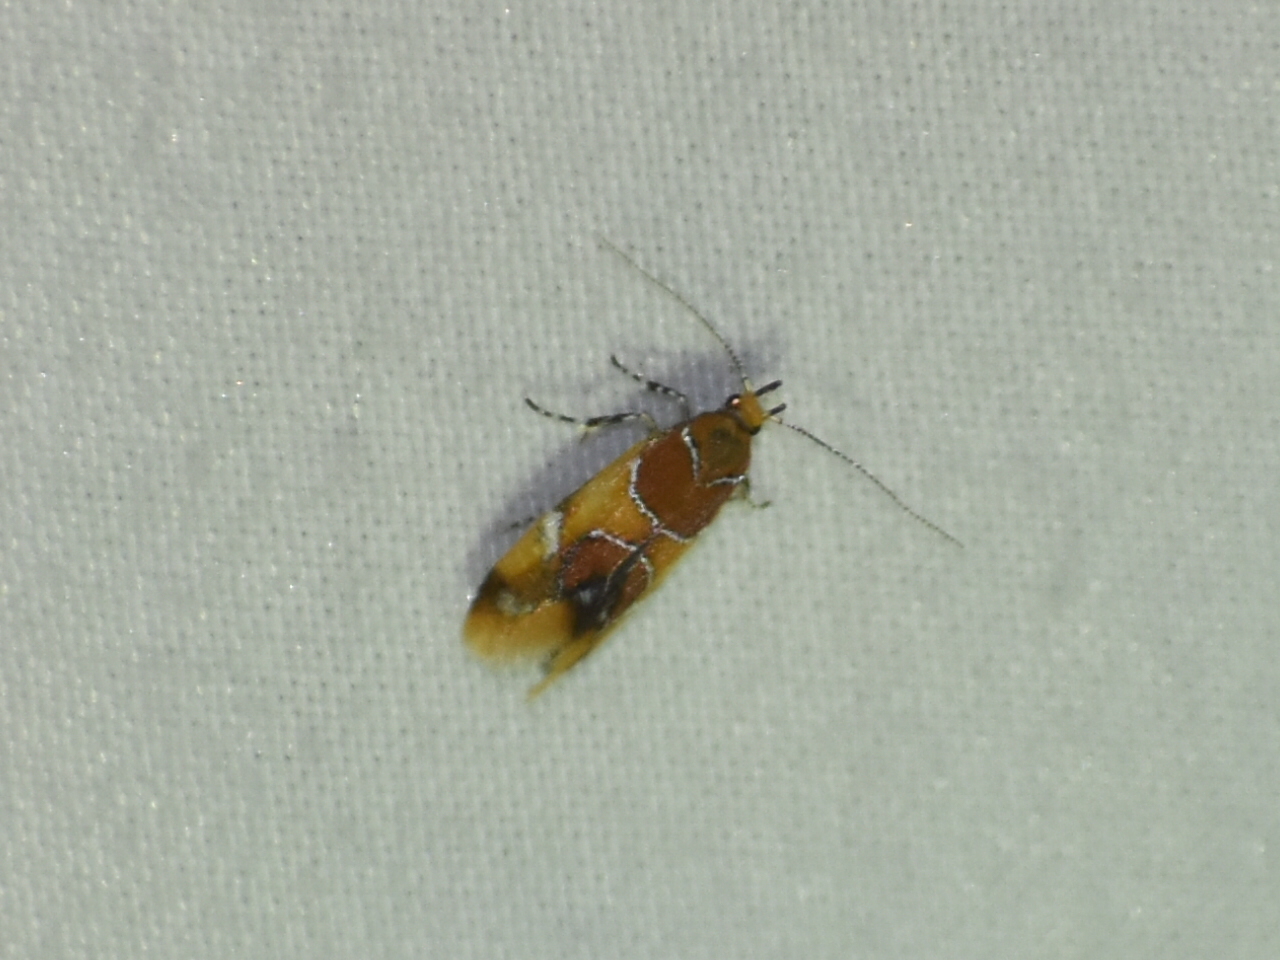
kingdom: Animalia
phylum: Arthropoda
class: Insecta
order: Lepidoptera
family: Oecophoridae
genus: Callima
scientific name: Callima argenticinctella
